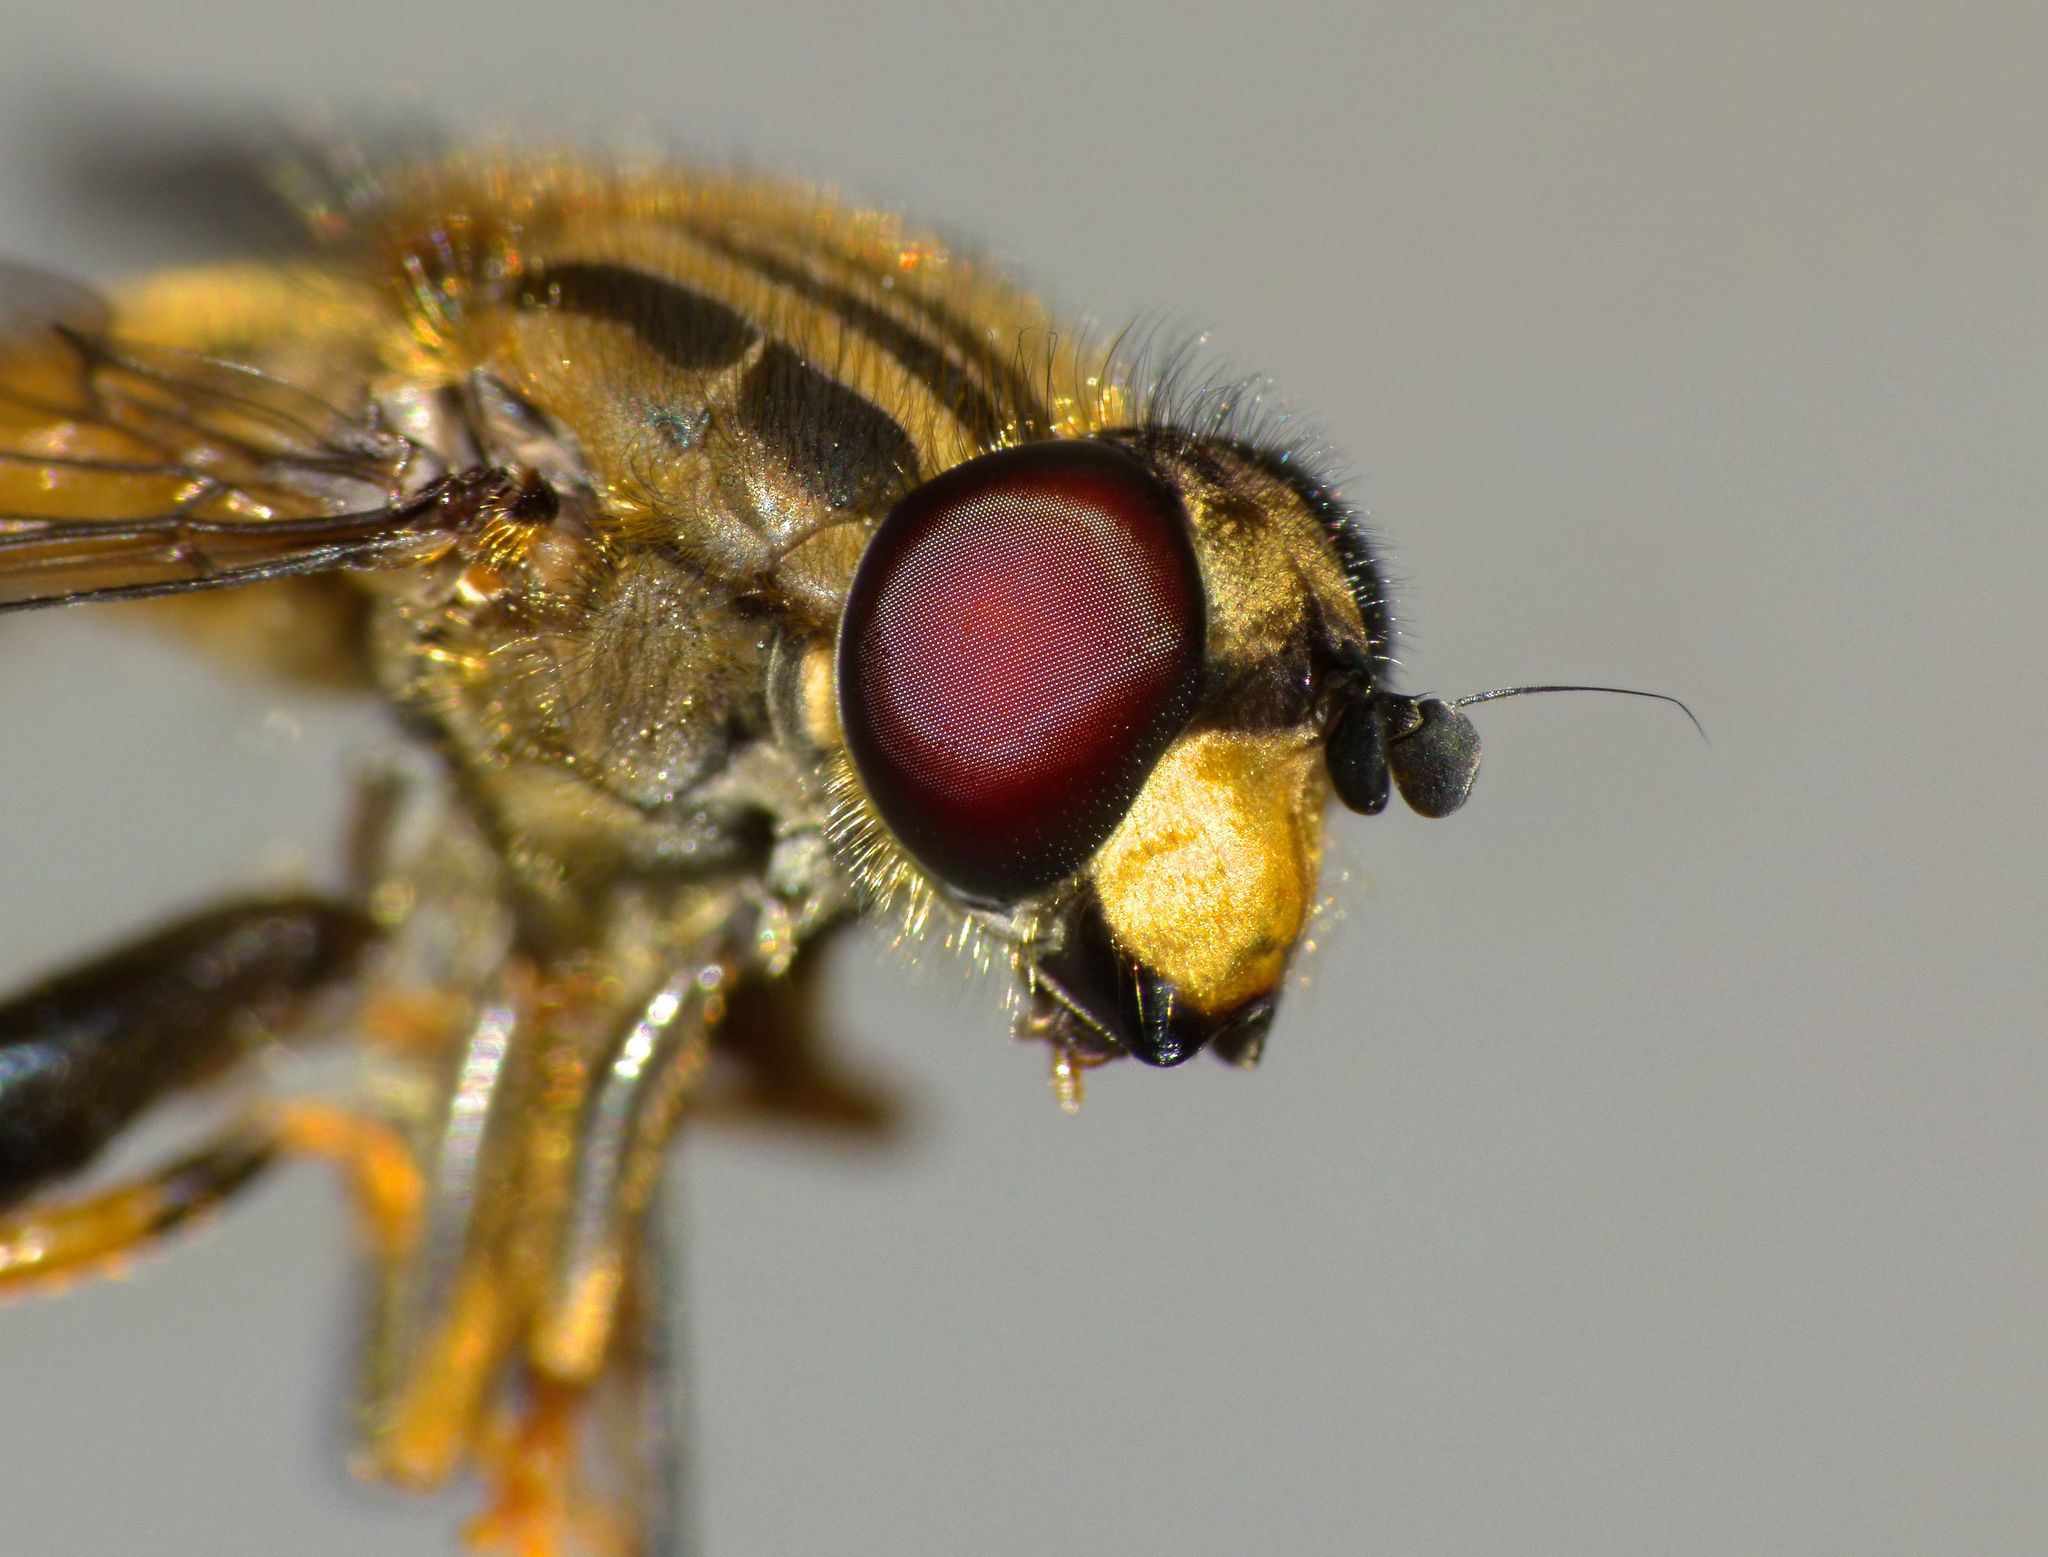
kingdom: Animalia
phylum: Arthropoda
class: Insecta
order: Diptera
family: Syrphidae
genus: Helophilus
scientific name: Helophilus antipodus
